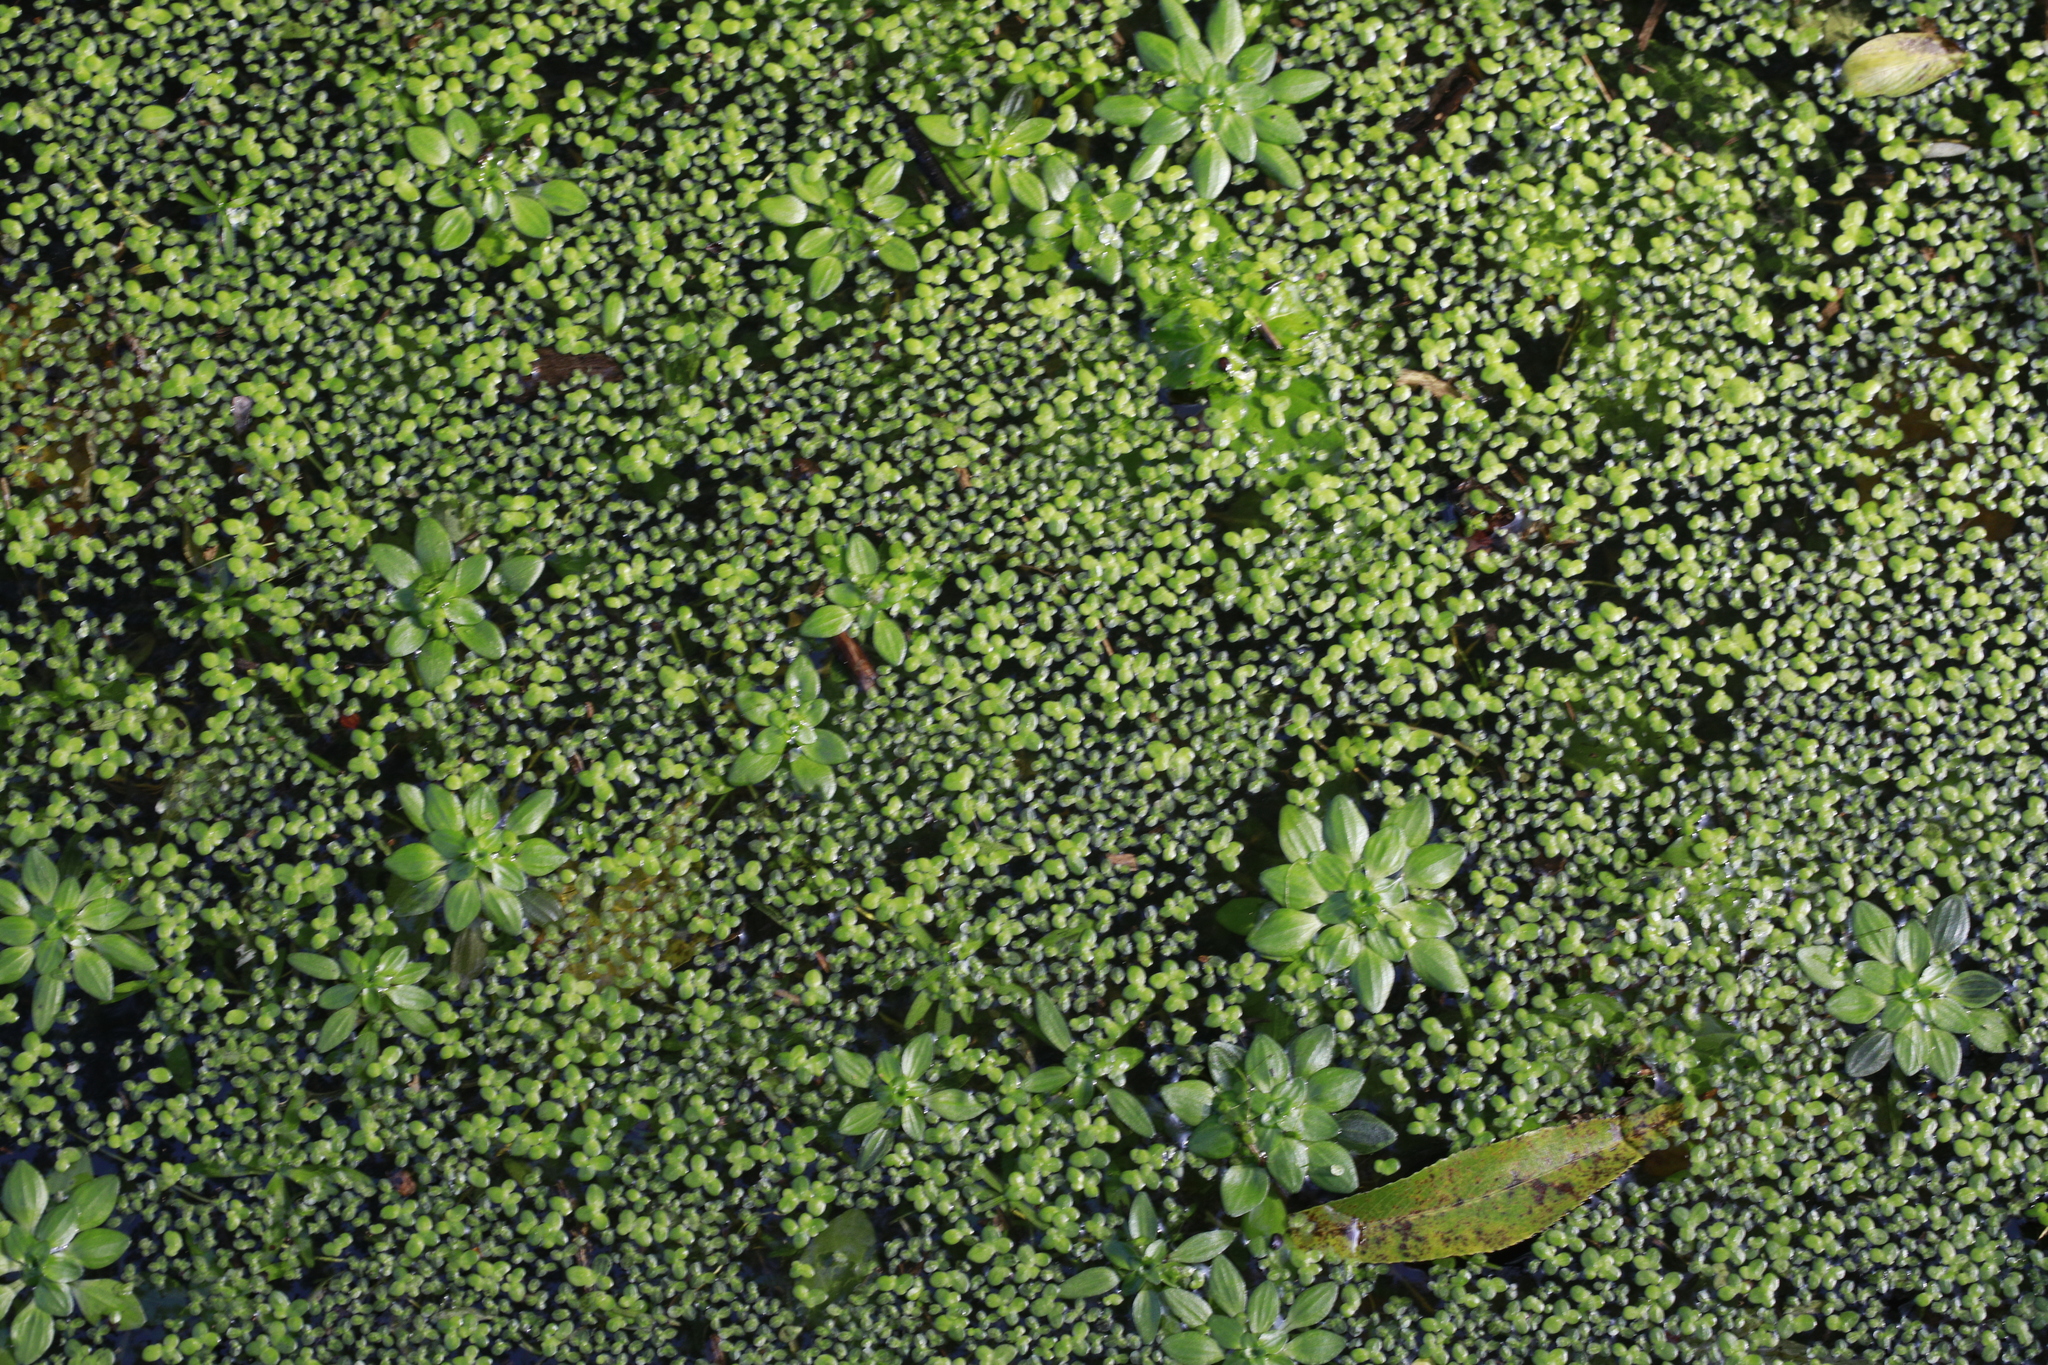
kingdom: Plantae
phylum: Tracheophyta
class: Liliopsida
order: Alismatales
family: Araceae
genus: Lemna
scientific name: Lemna minuta
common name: Least duckweed
